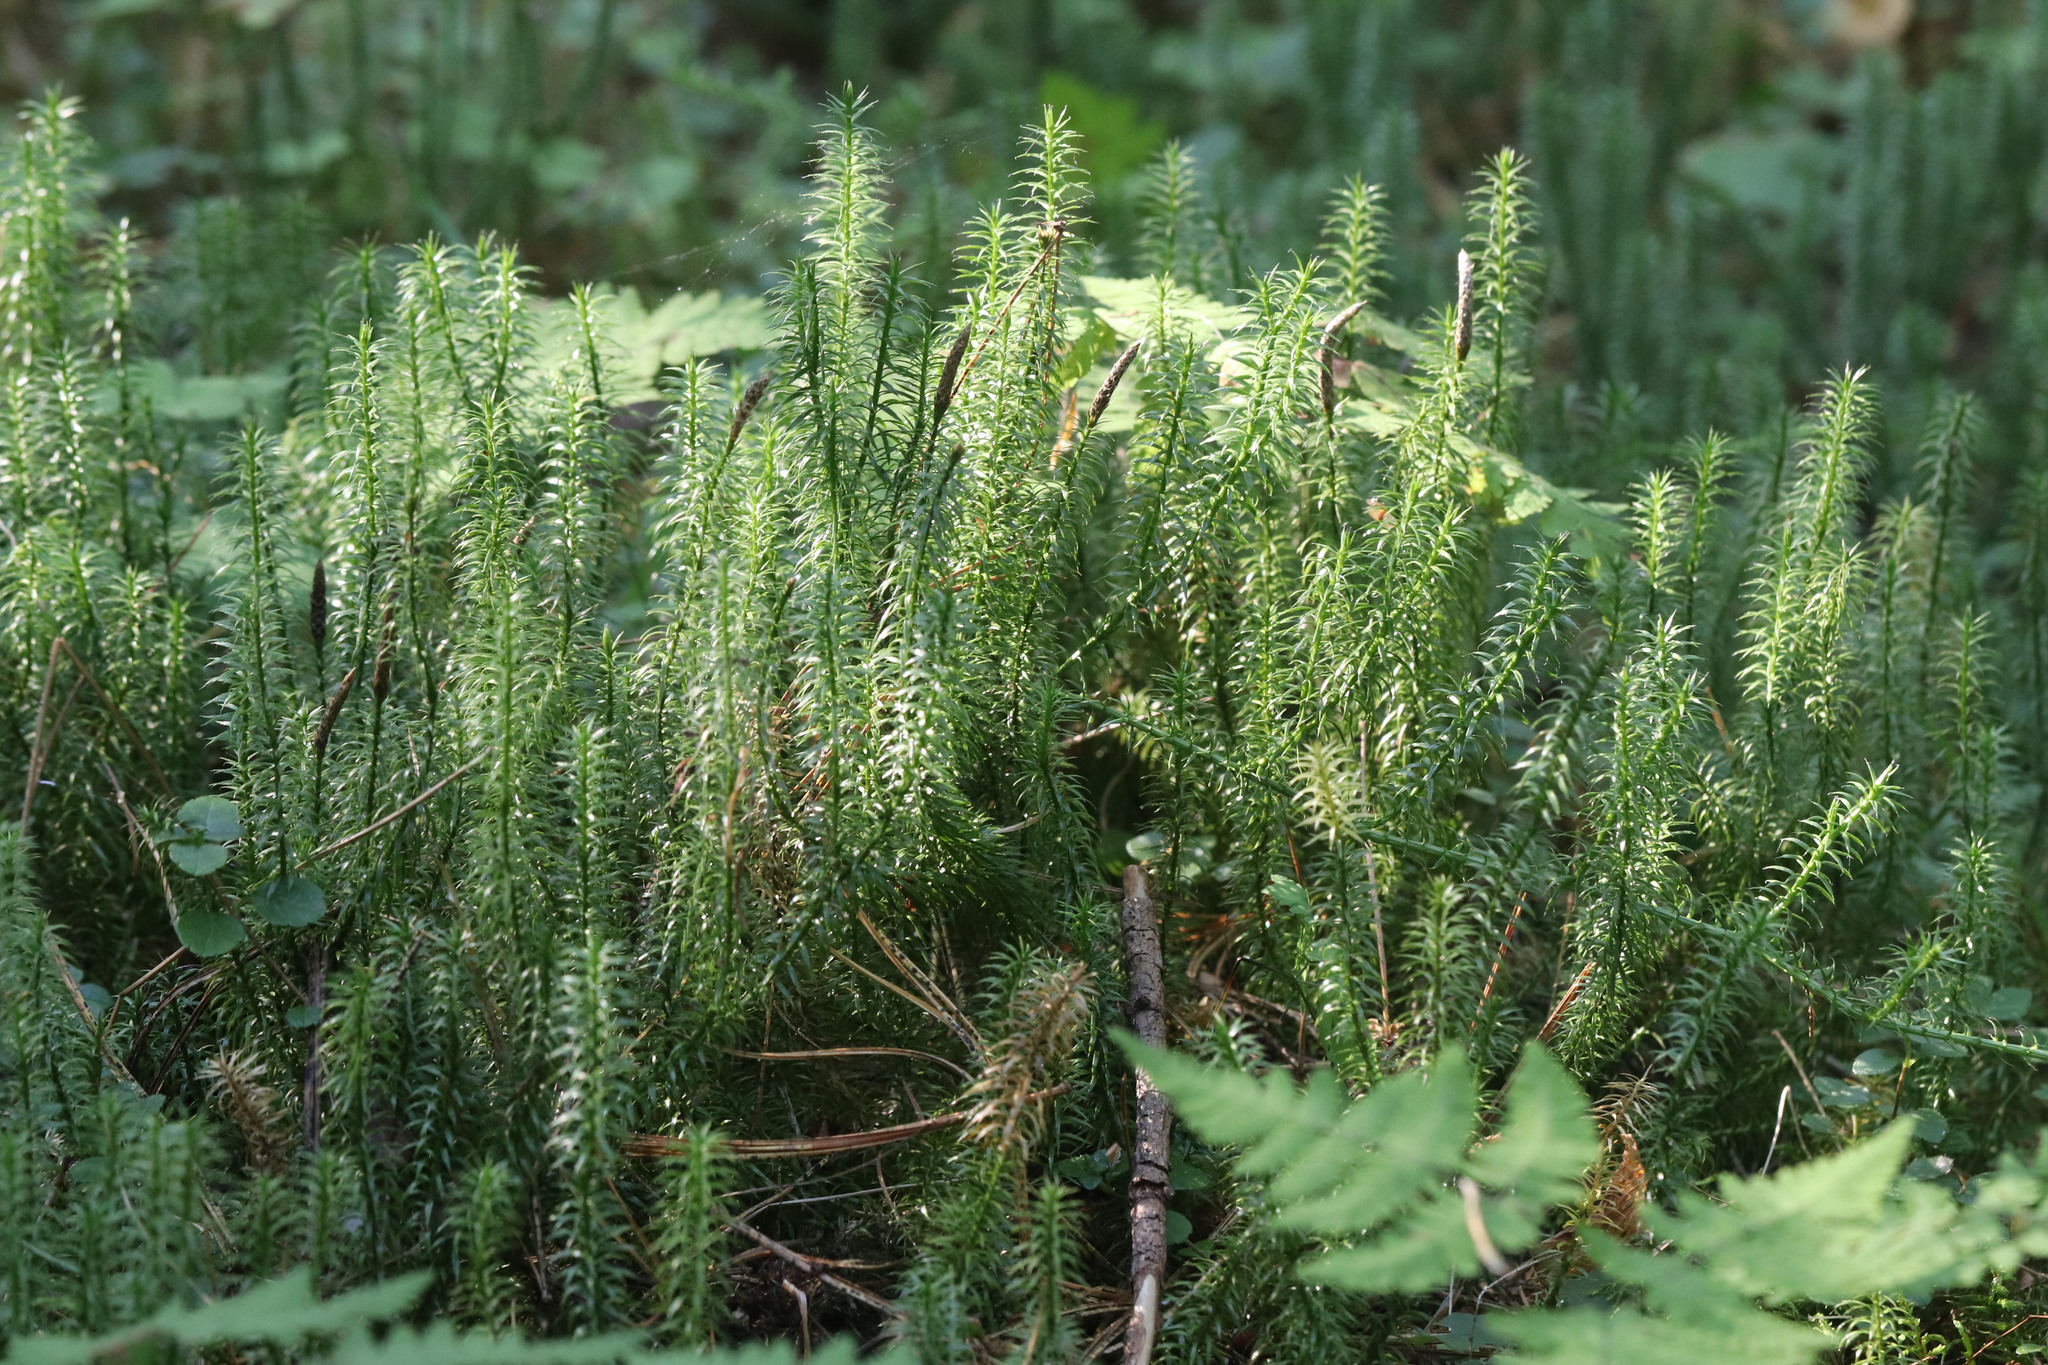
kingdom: Plantae
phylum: Tracheophyta
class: Lycopodiopsida
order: Lycopodiales
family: Lycopodiaceae
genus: Spinulum
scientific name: Spinulum annotinum
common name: Interrupted club-moss
